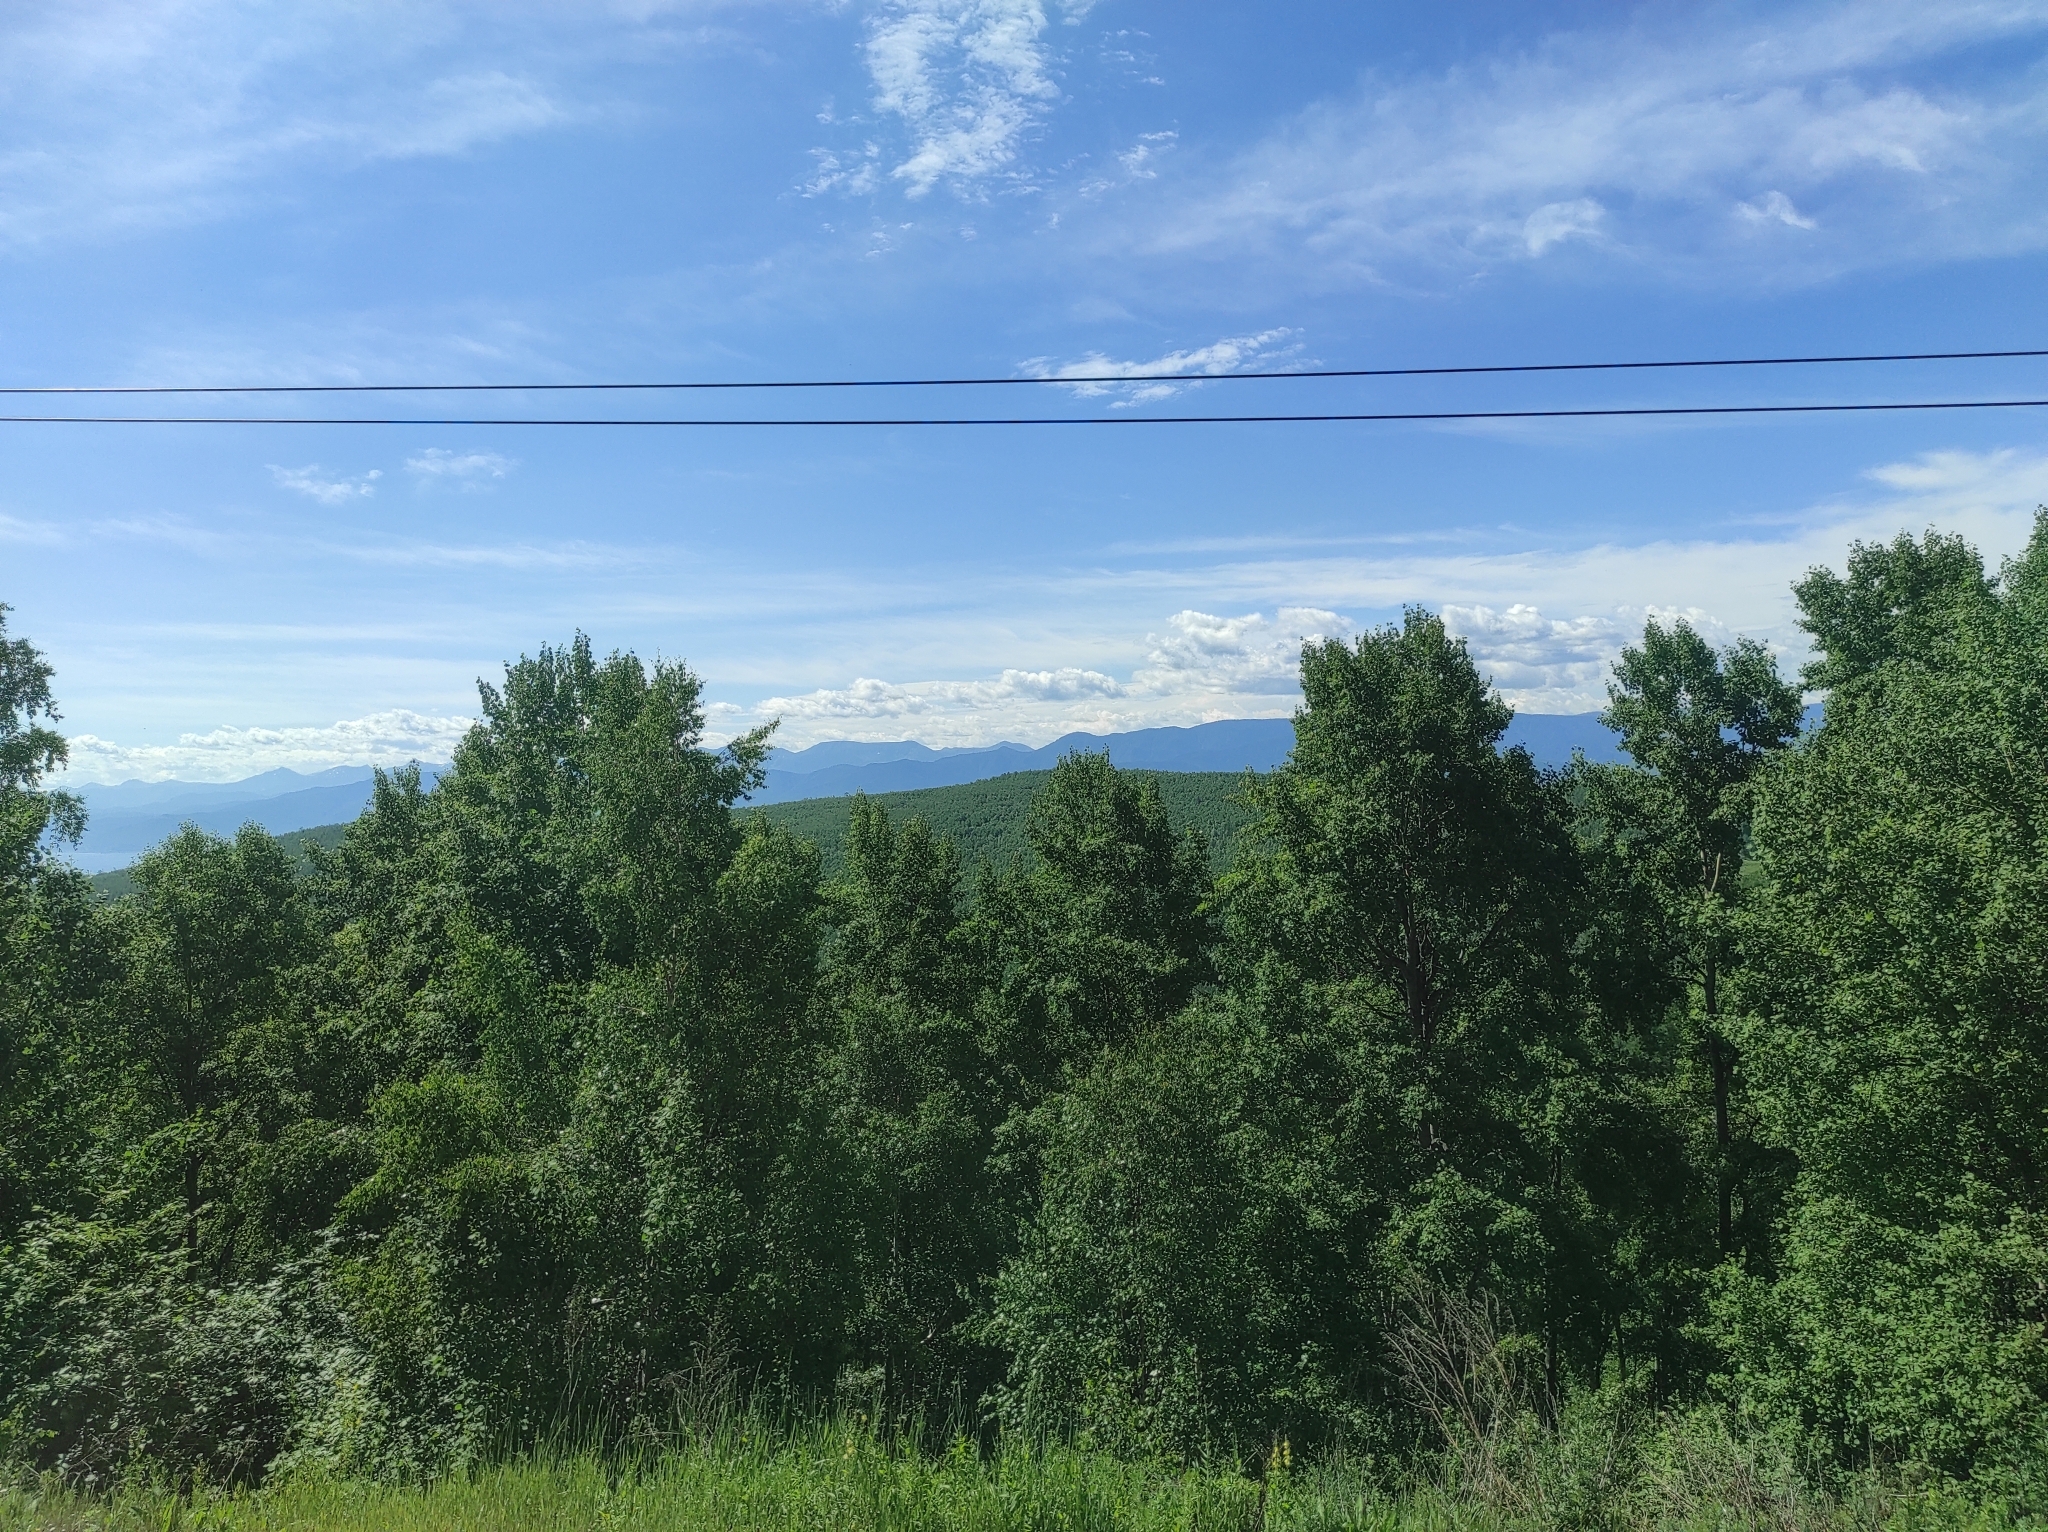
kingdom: Plantae
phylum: Tracheophyta
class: Magnoliopsida
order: Malpighiales
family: Salicaceae
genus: Populus
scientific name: Populus tremula
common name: European aspen
